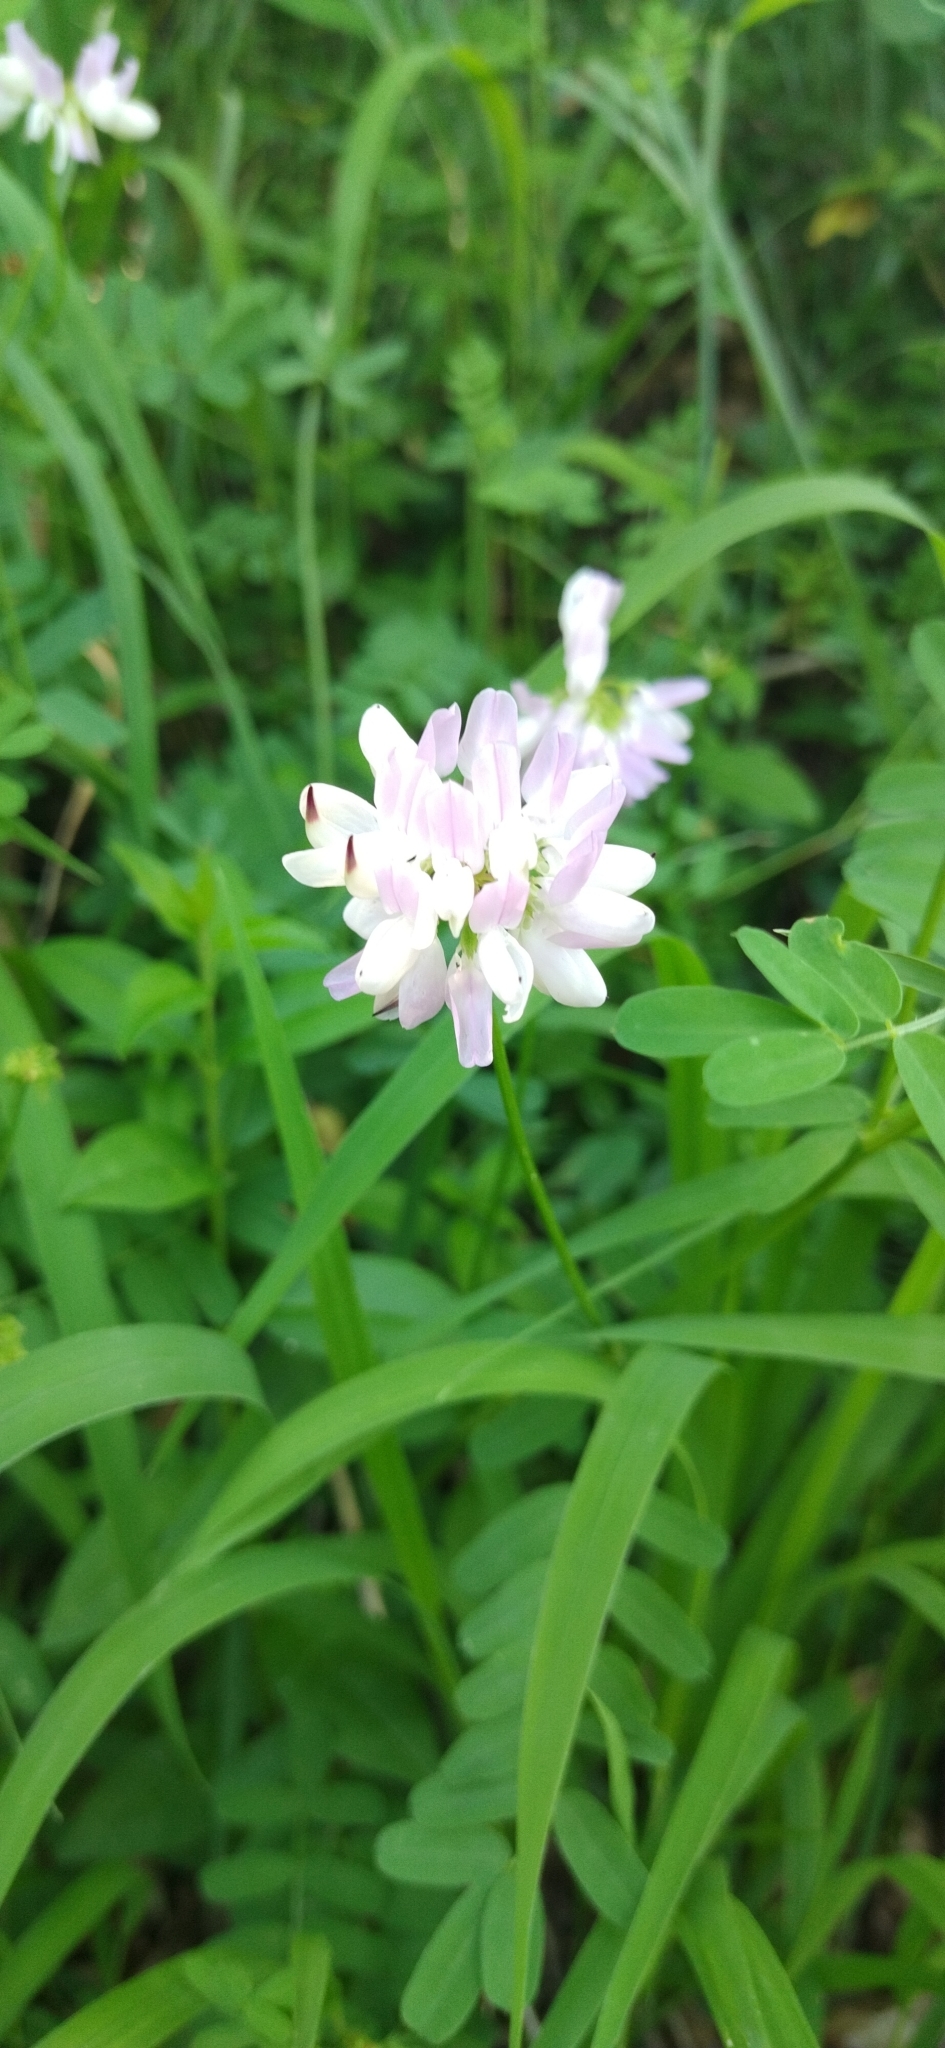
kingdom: Plantae
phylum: Tracheophyta
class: Magnoliopsida
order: Fabales
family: Fabaceae
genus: Coronilla
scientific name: Coronilla varia
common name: Crownvetch
